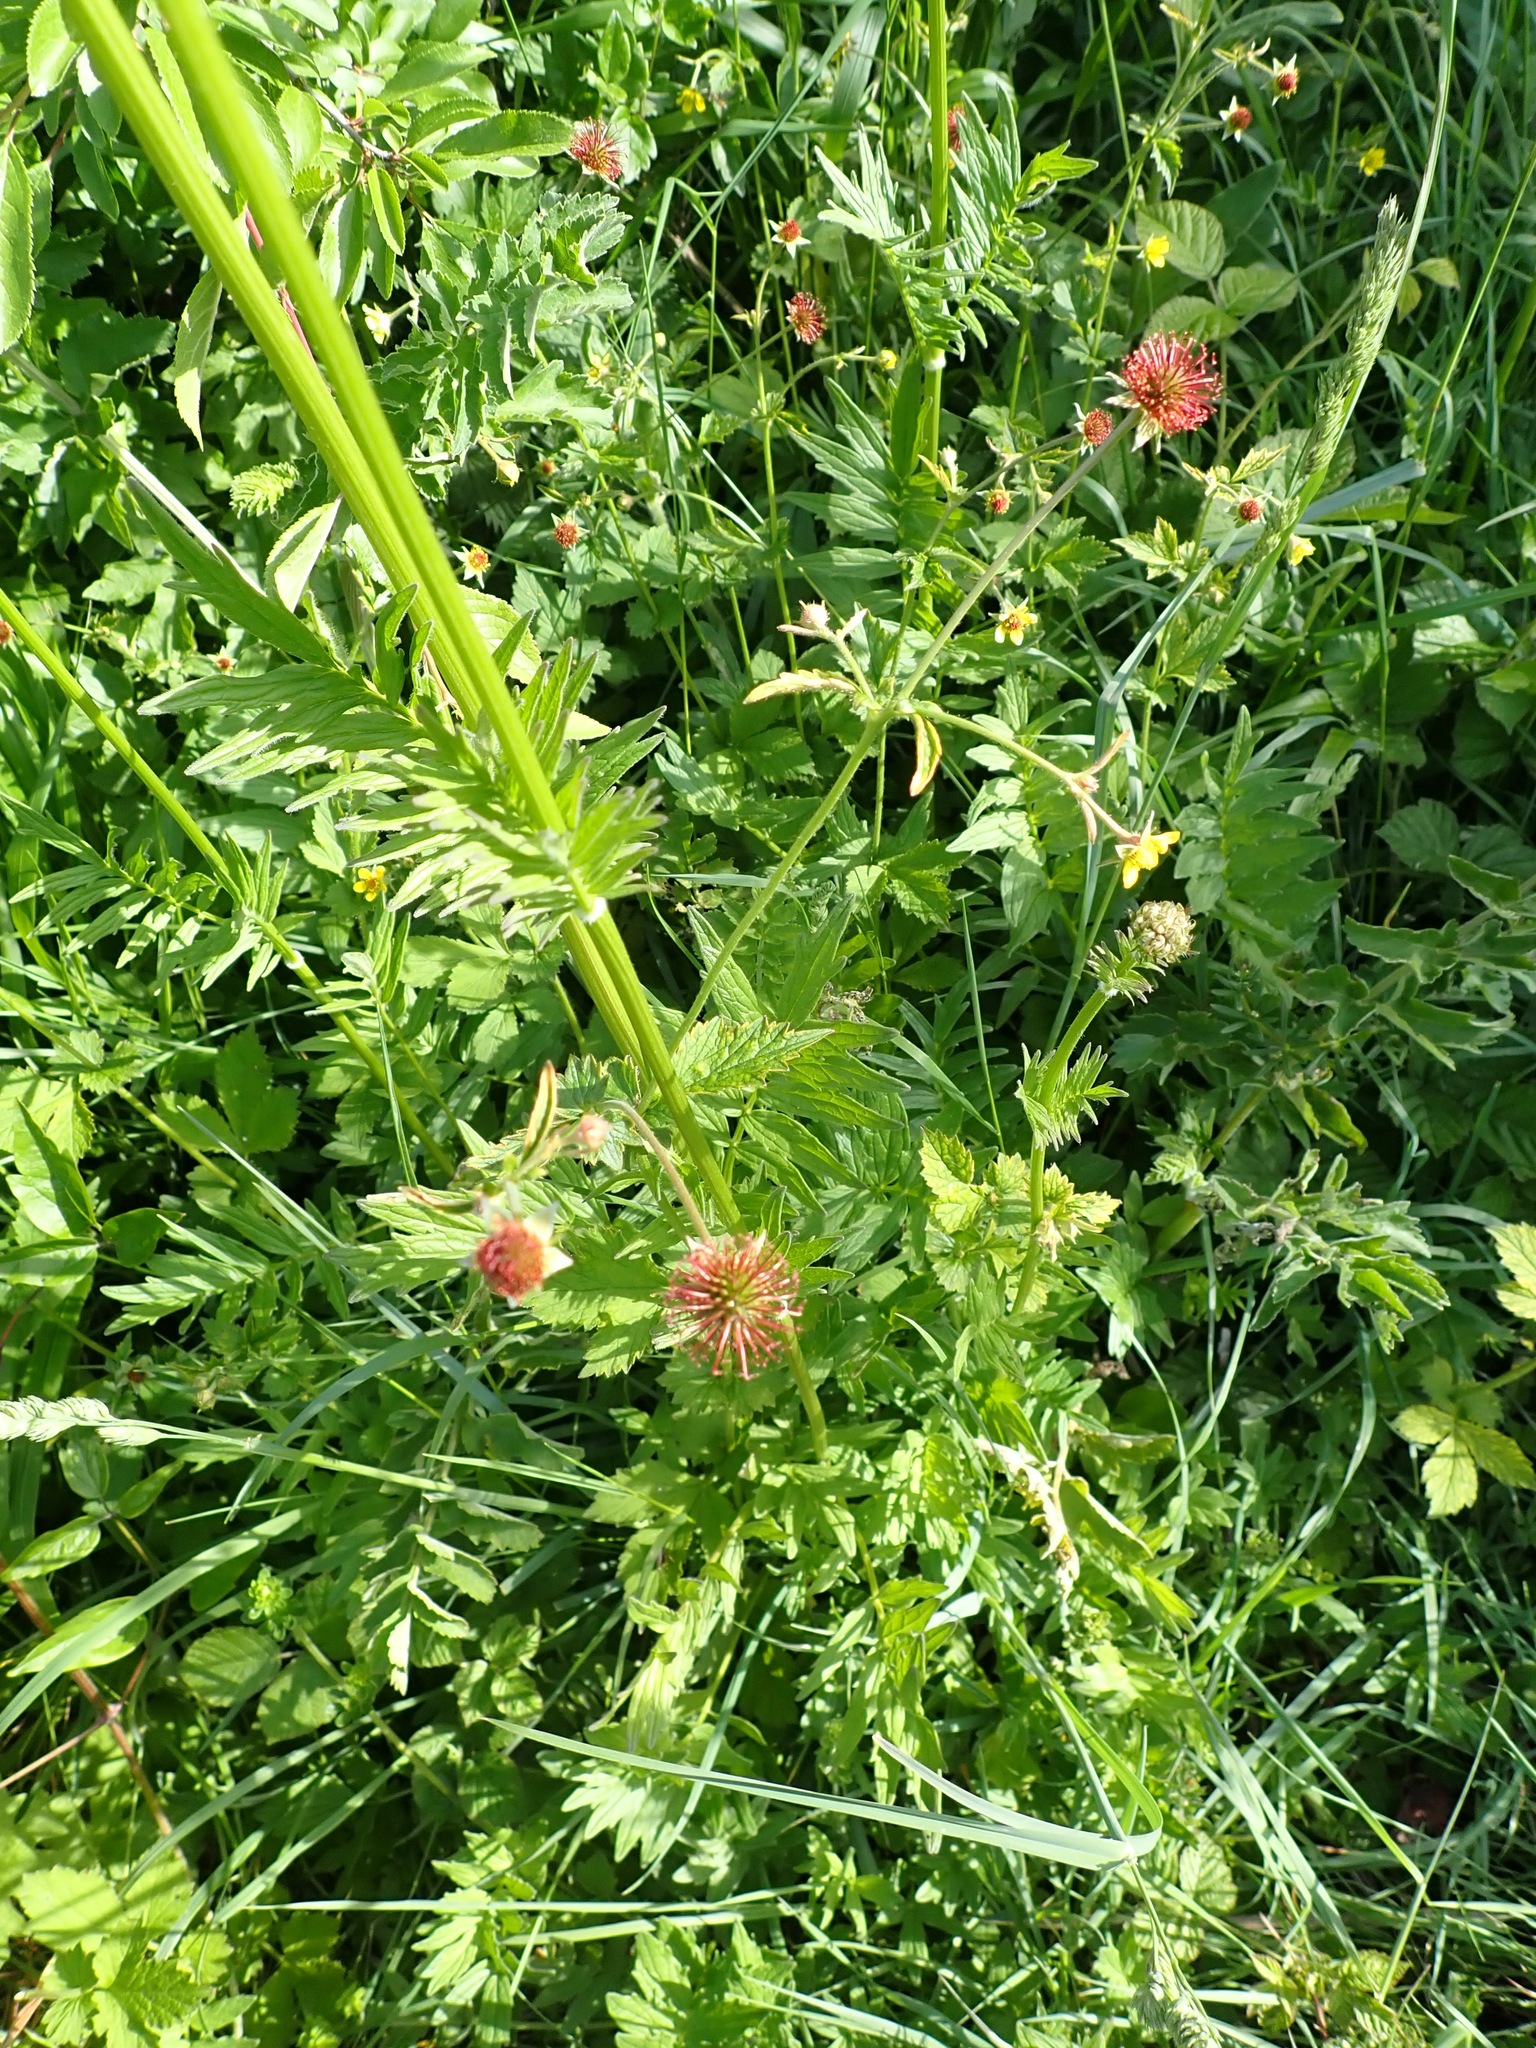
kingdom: Plantae
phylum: Tracheophyta
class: Magnoliopsida
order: Rosales
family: Rosaceae
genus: Geum
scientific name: Geum urbanum
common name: Wood avens
